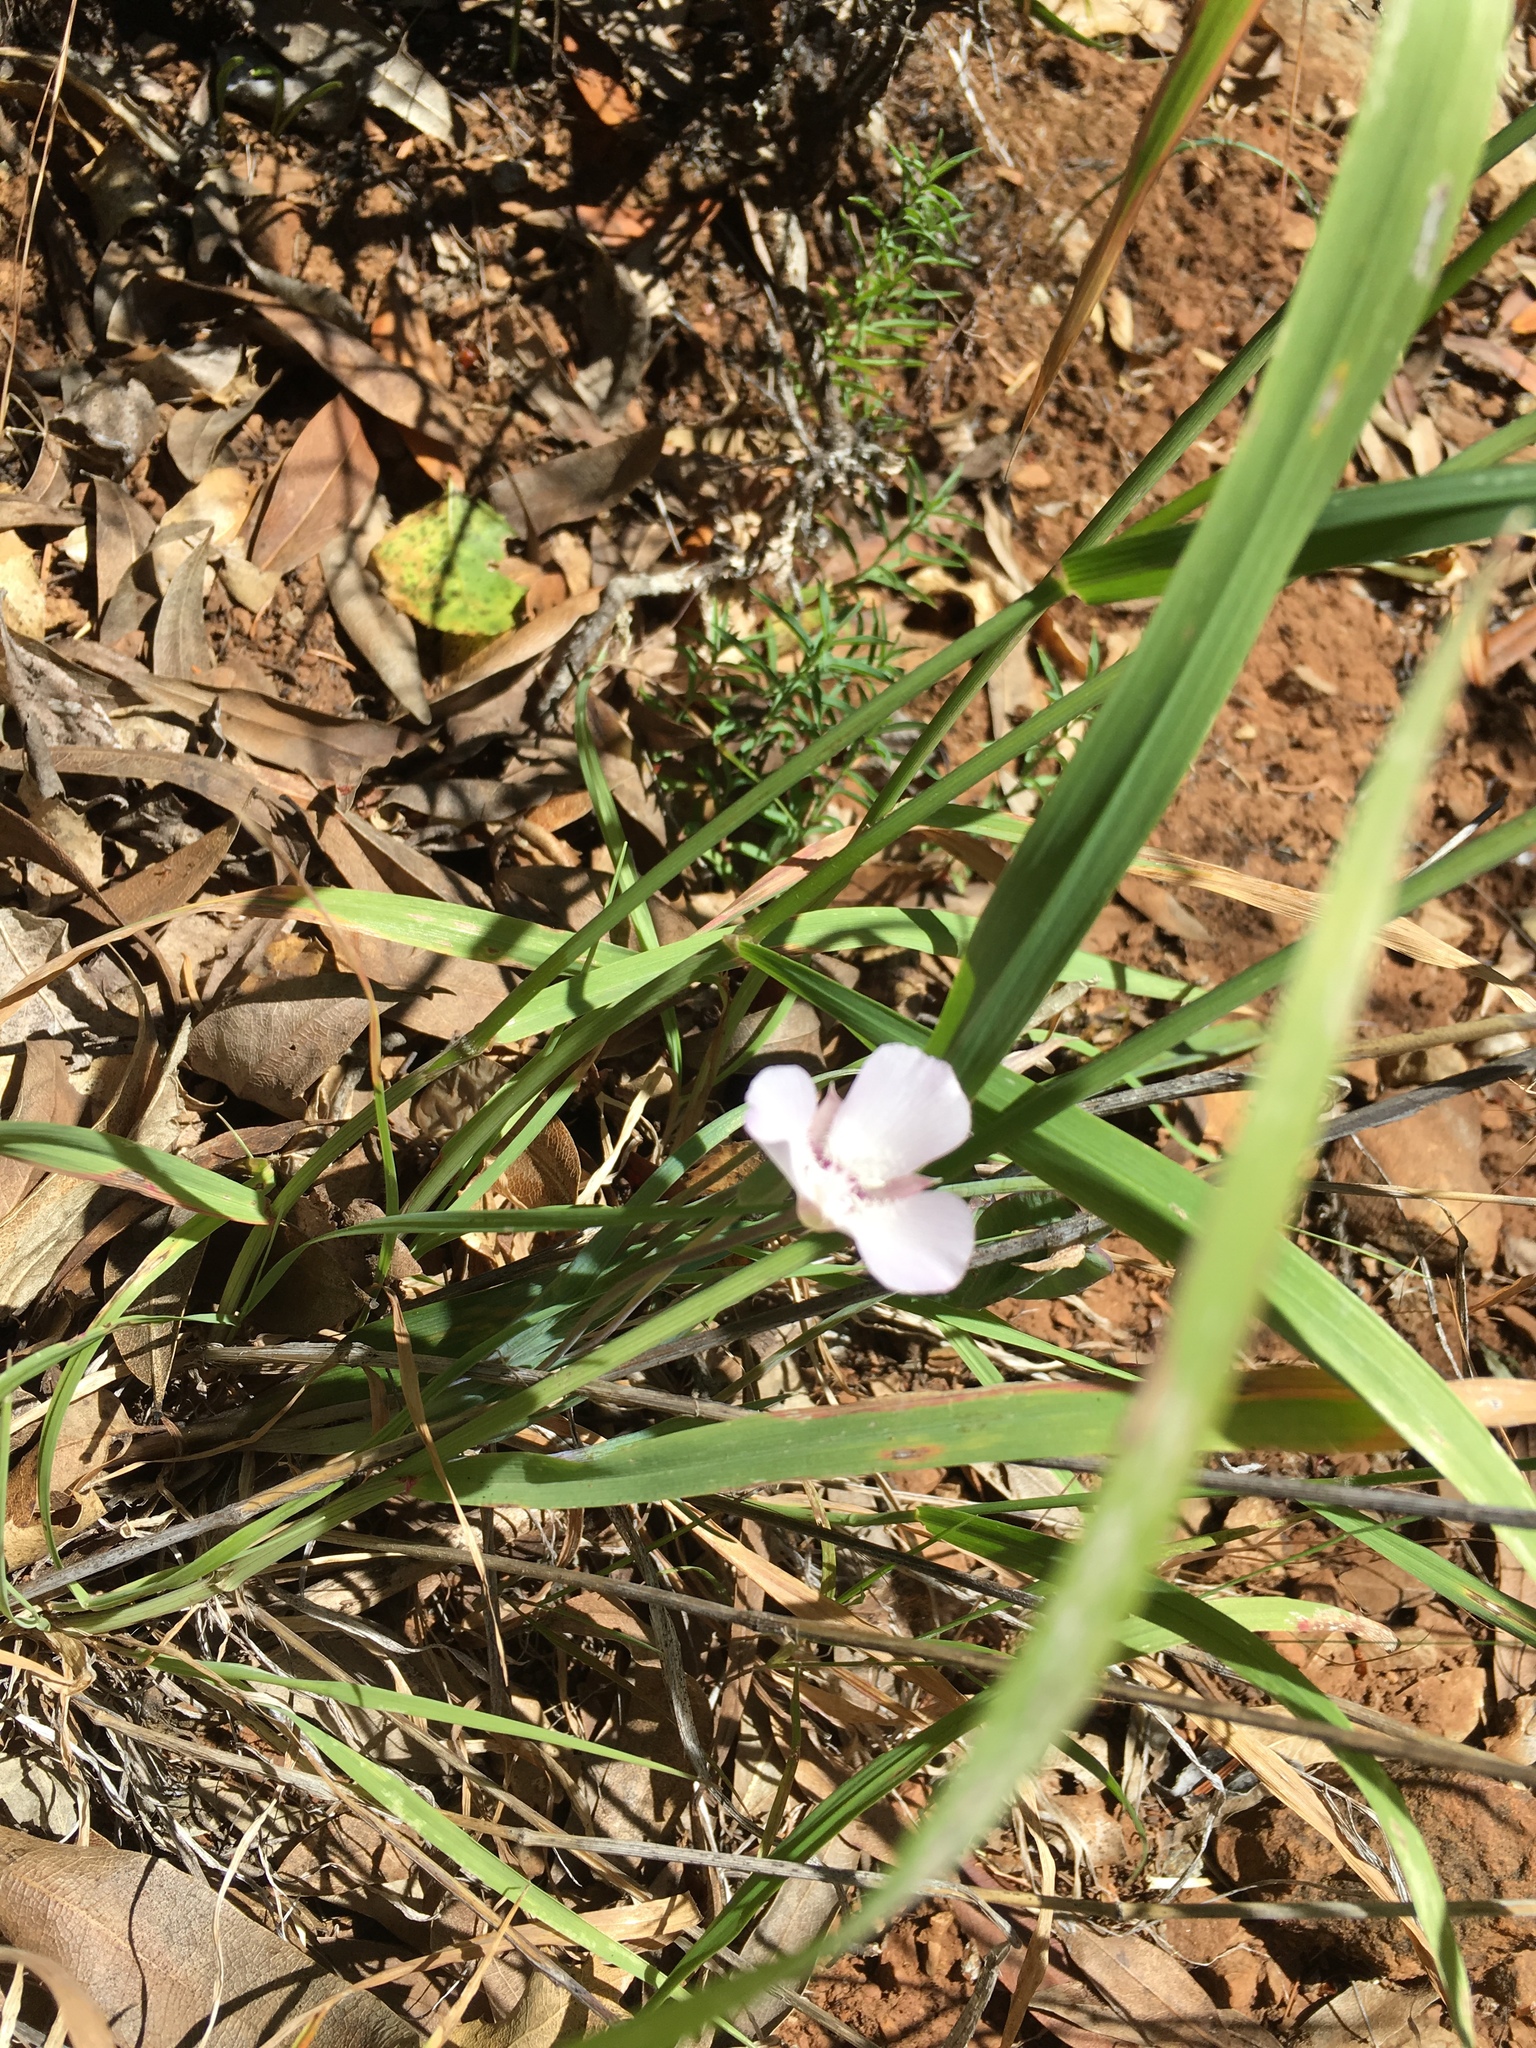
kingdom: Plantae
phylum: Tracheophyta
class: Liliopsida
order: Liliales
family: Liliaceae
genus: Calochortus
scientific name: Calochortus umbellatus
